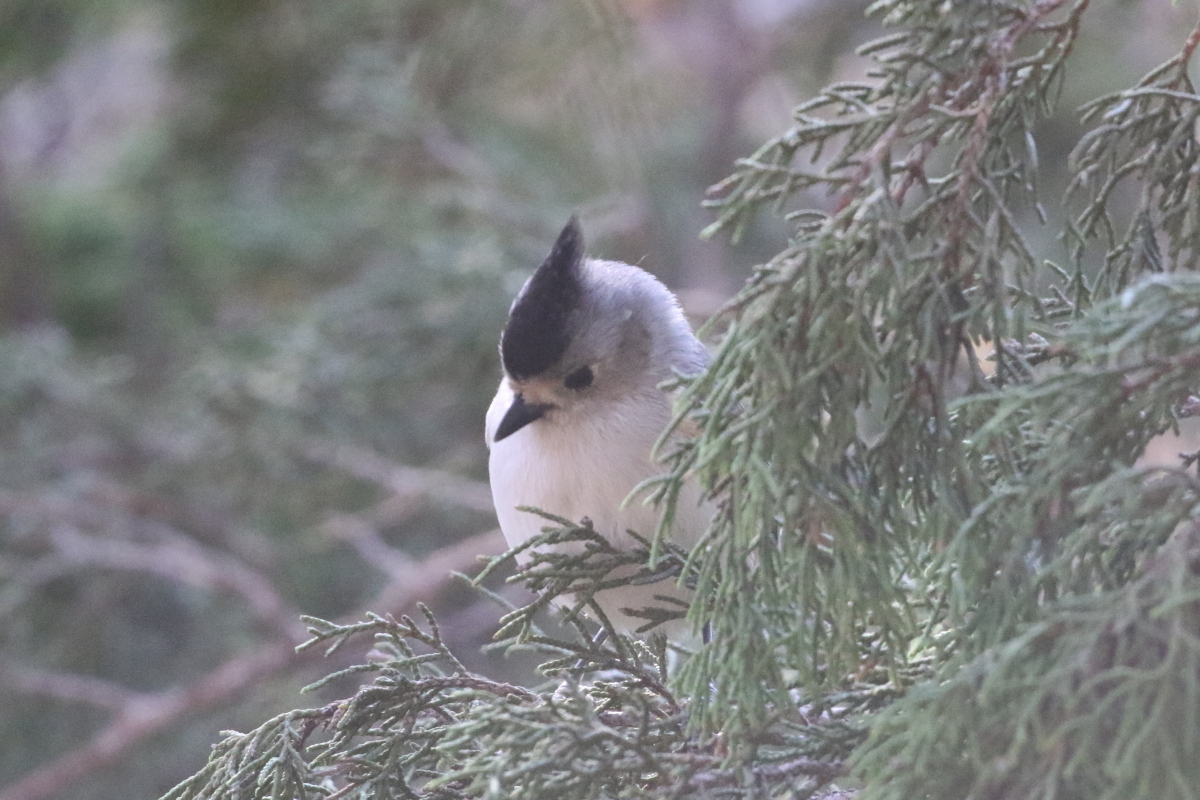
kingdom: Animalia
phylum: Chordata
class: Aves
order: Passeriformes
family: Paridae
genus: Baeolophus
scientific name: Baeolophus atricristatus
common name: Black-crested titmouse
